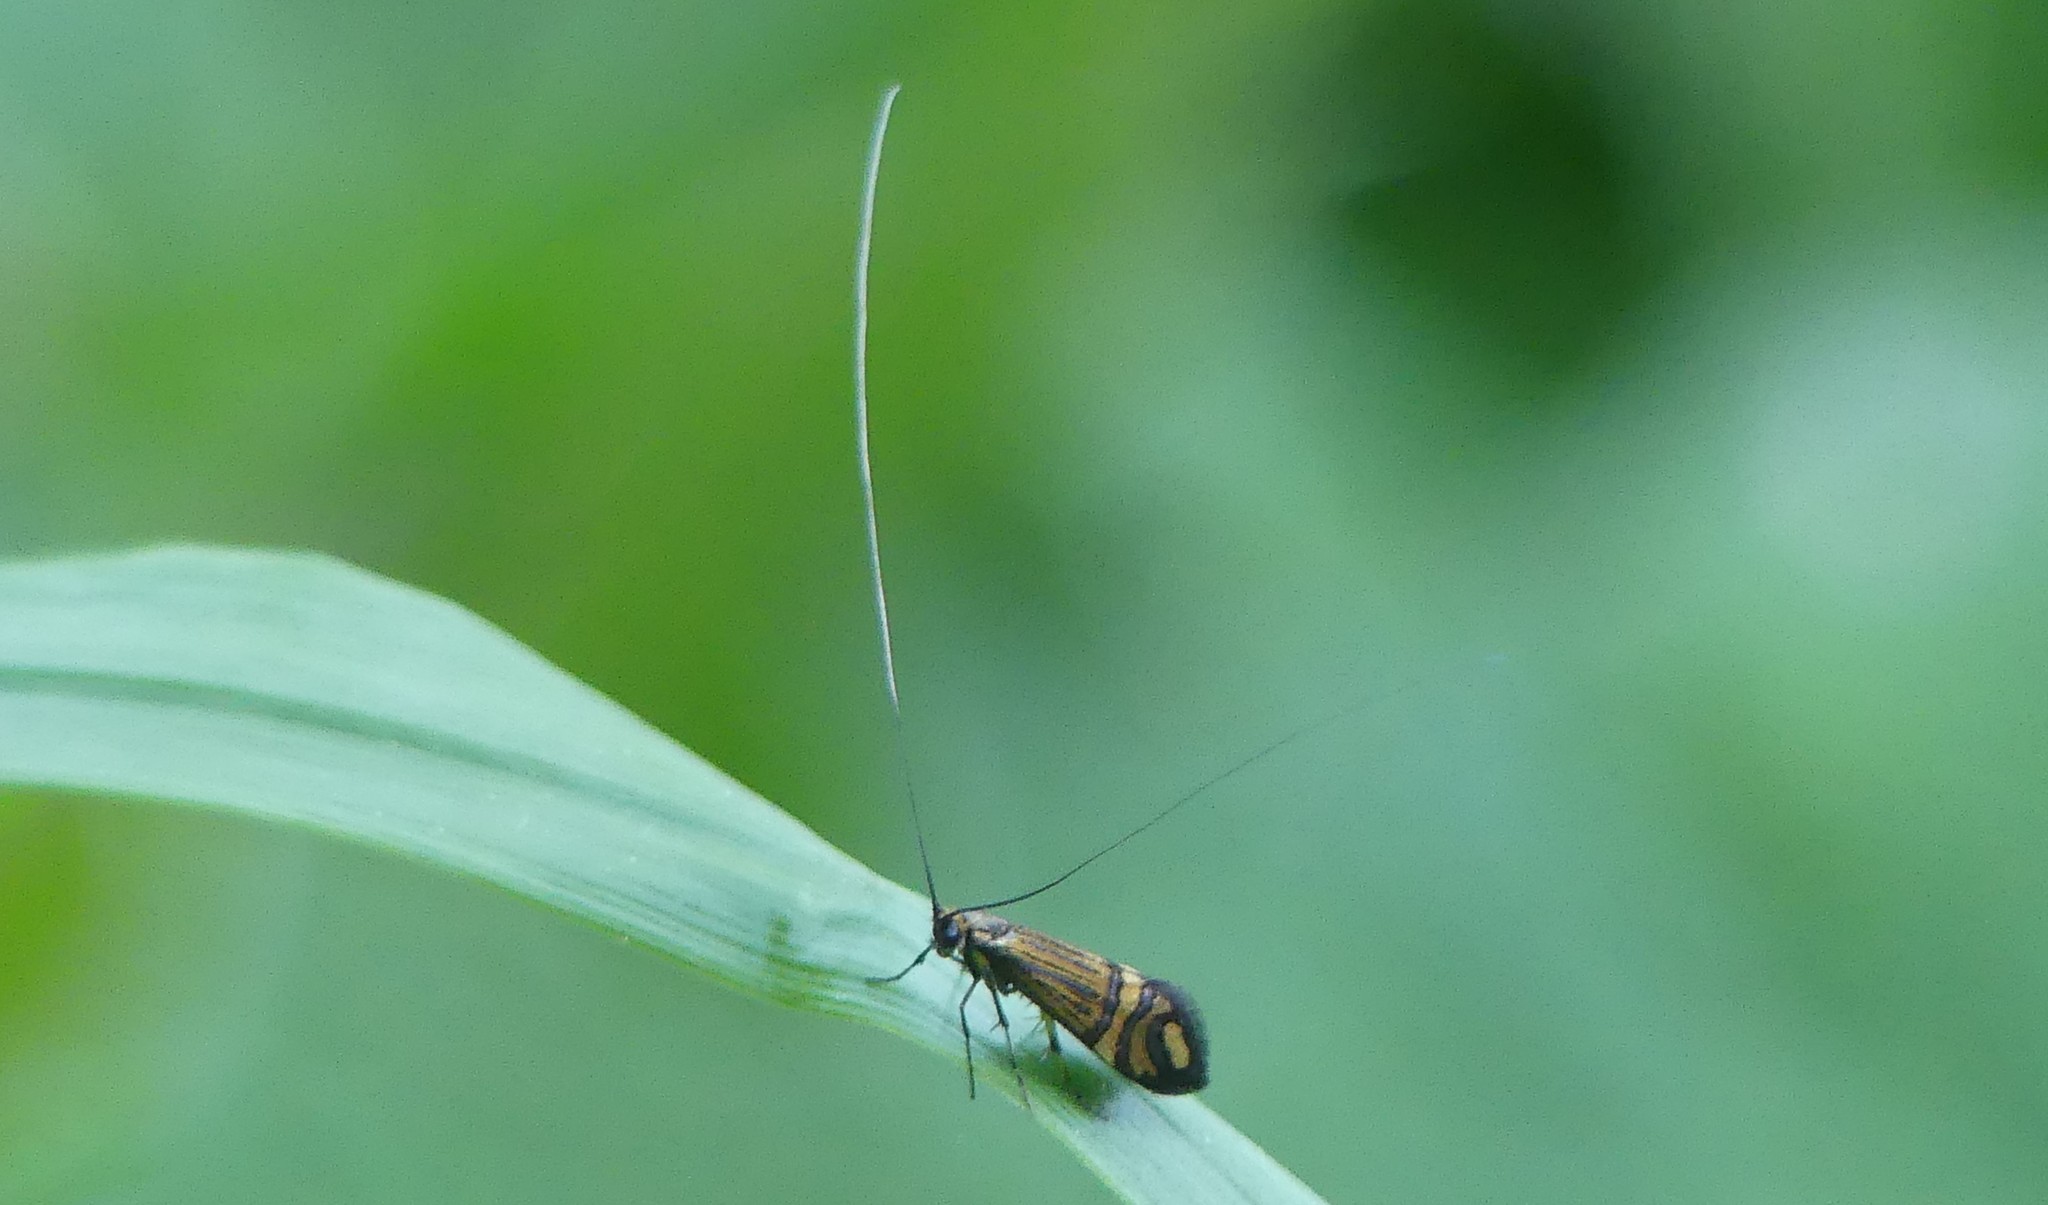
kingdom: Animalia
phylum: Arthropoda
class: Insecta
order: Lepidoptera
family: Adelidae
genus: Nemophora
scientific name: Nemophora ochsenheimerella
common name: Ochsenheimer’s long-horn
